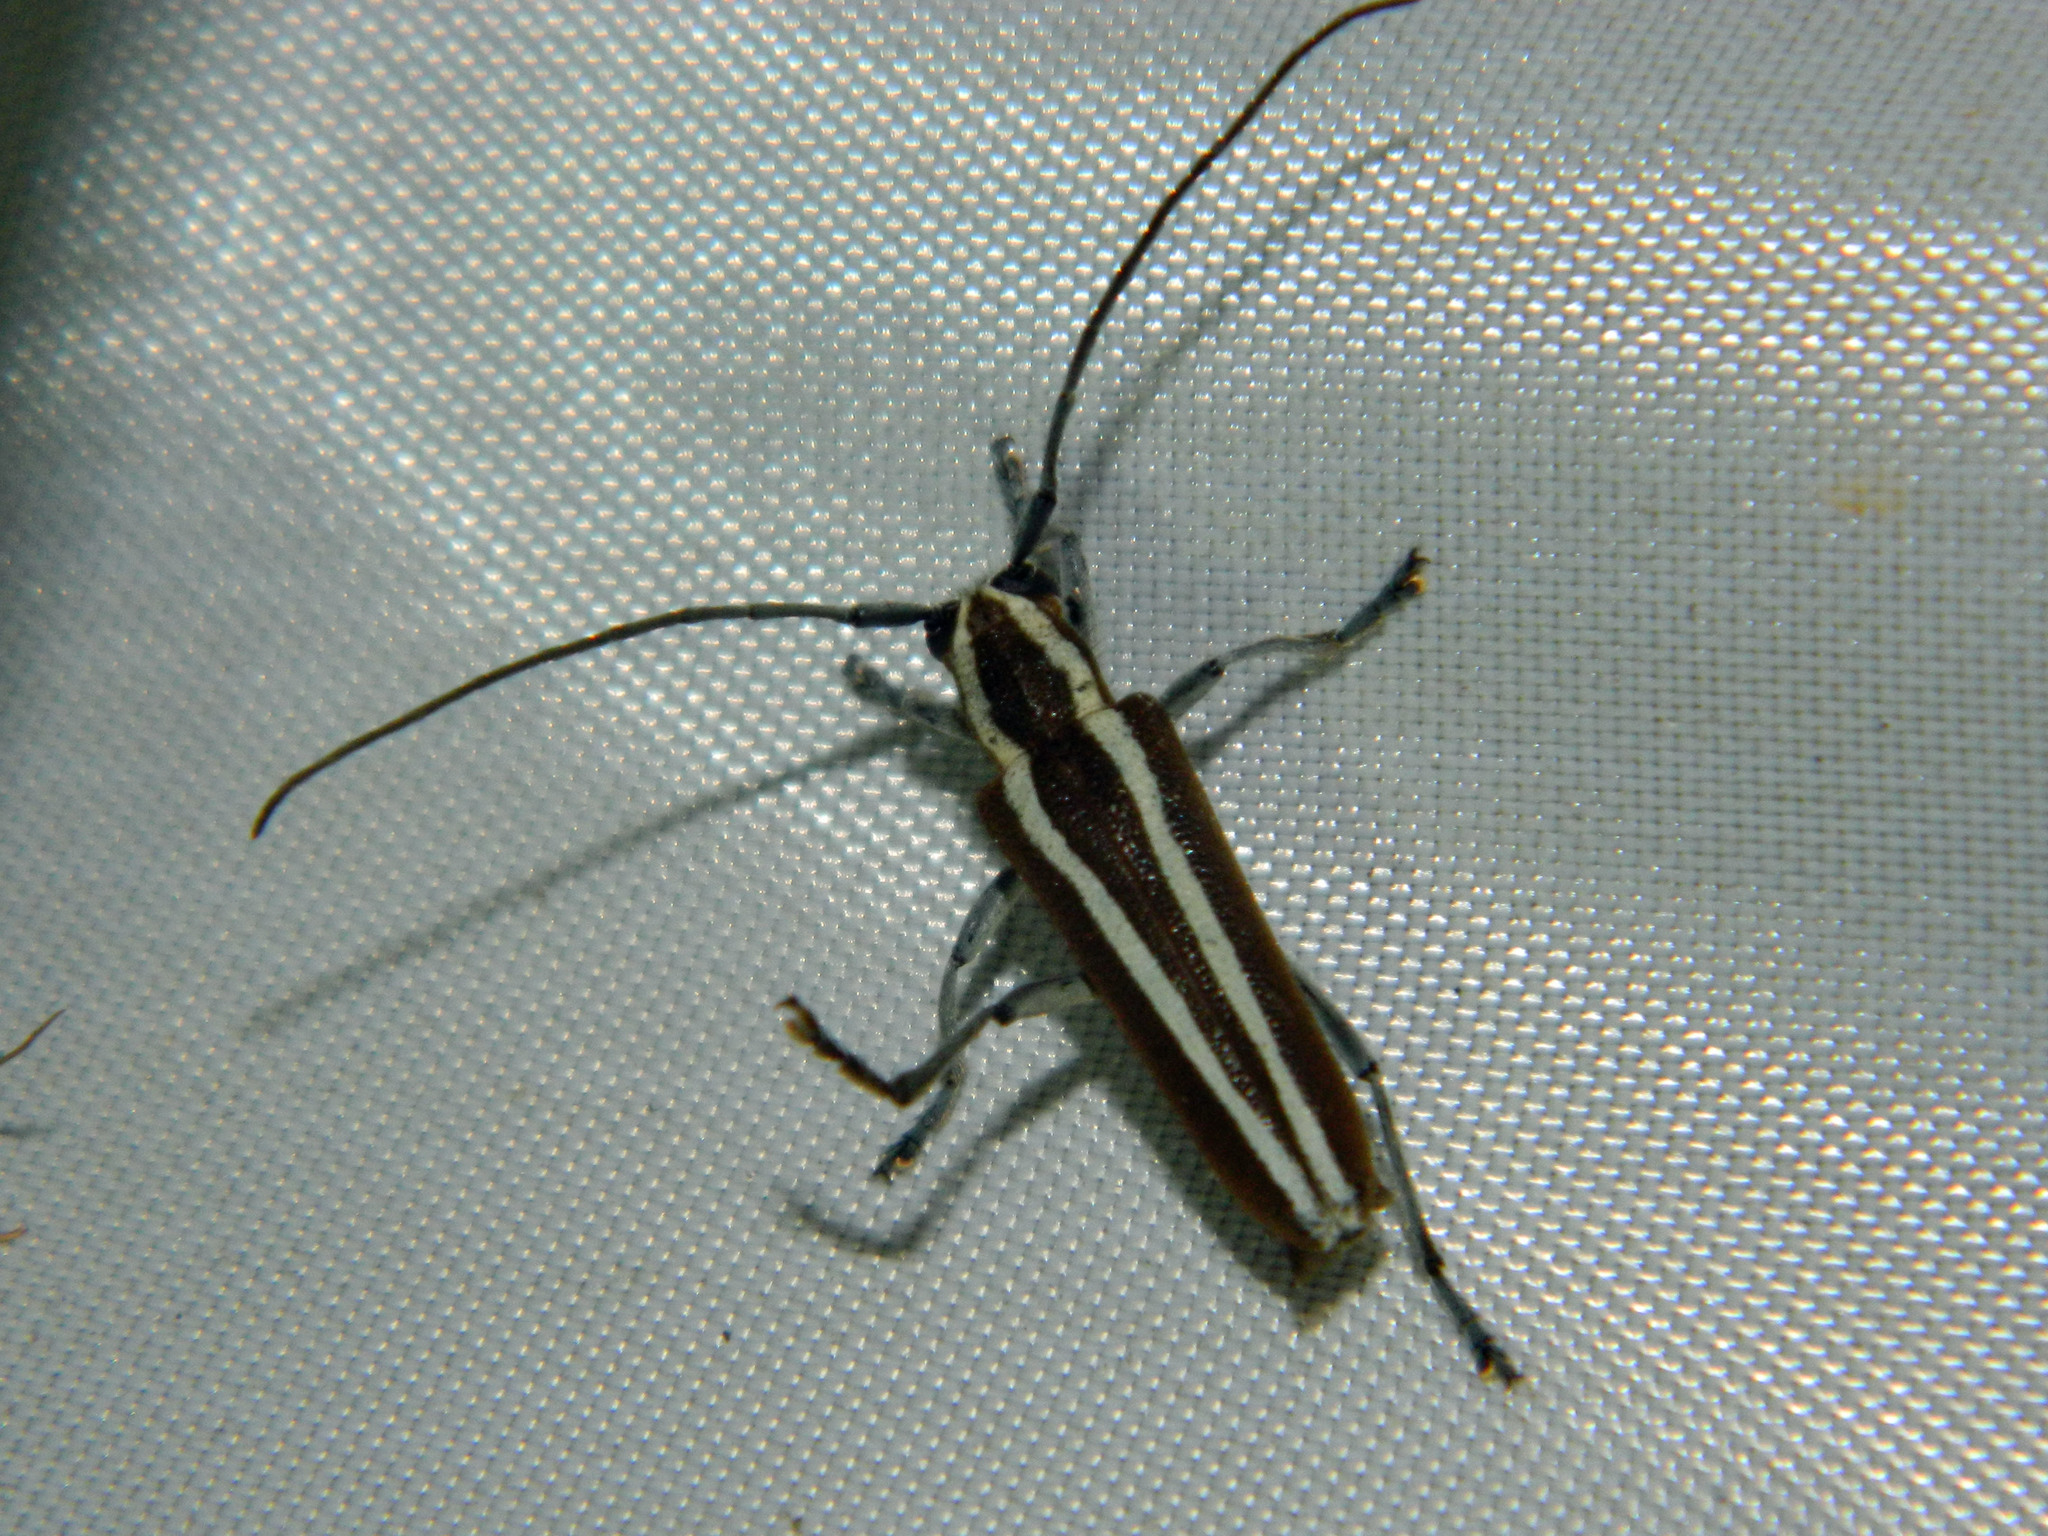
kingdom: Animalia
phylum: Arthropoda
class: Insecta
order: Coleoptera
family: Cerambycidae
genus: Saperda
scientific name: Saperda candida
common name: Round-headed borer
